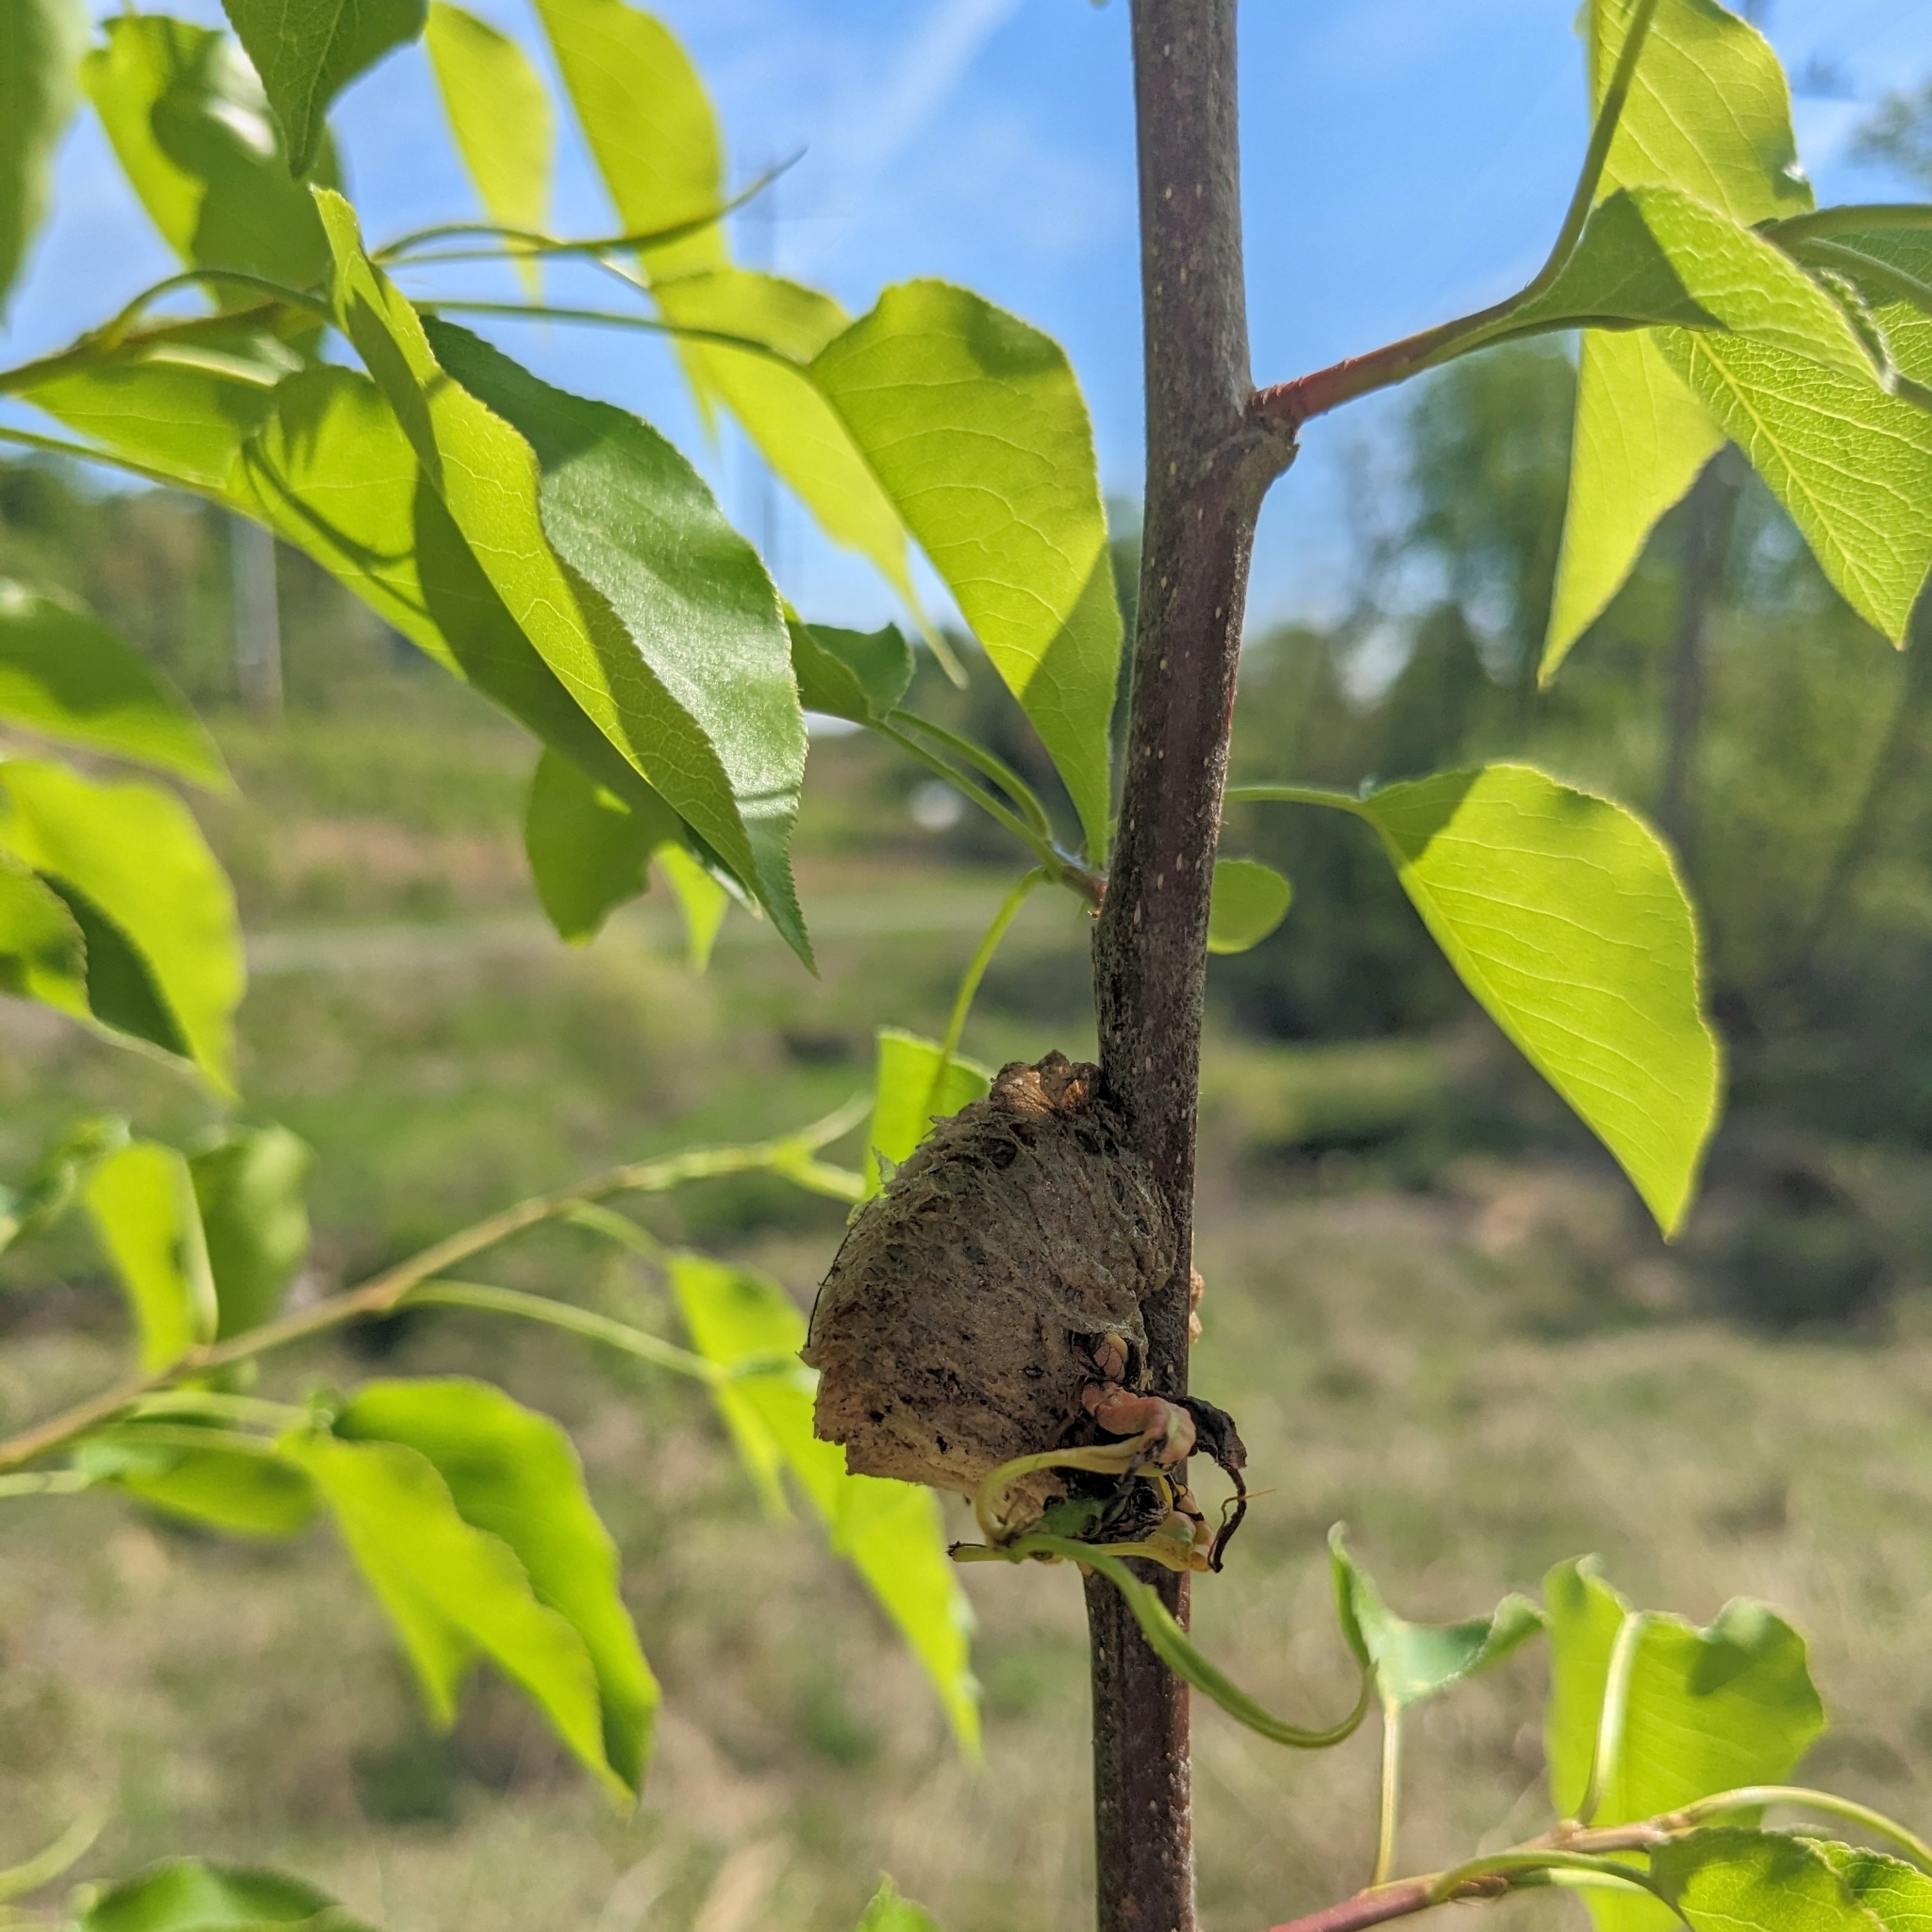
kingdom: Animalia
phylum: Arthropoda
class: Insecta
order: Mantodea
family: Mantidae
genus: Tenodera
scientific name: Tenodera sinensis
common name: Chinese mantis
